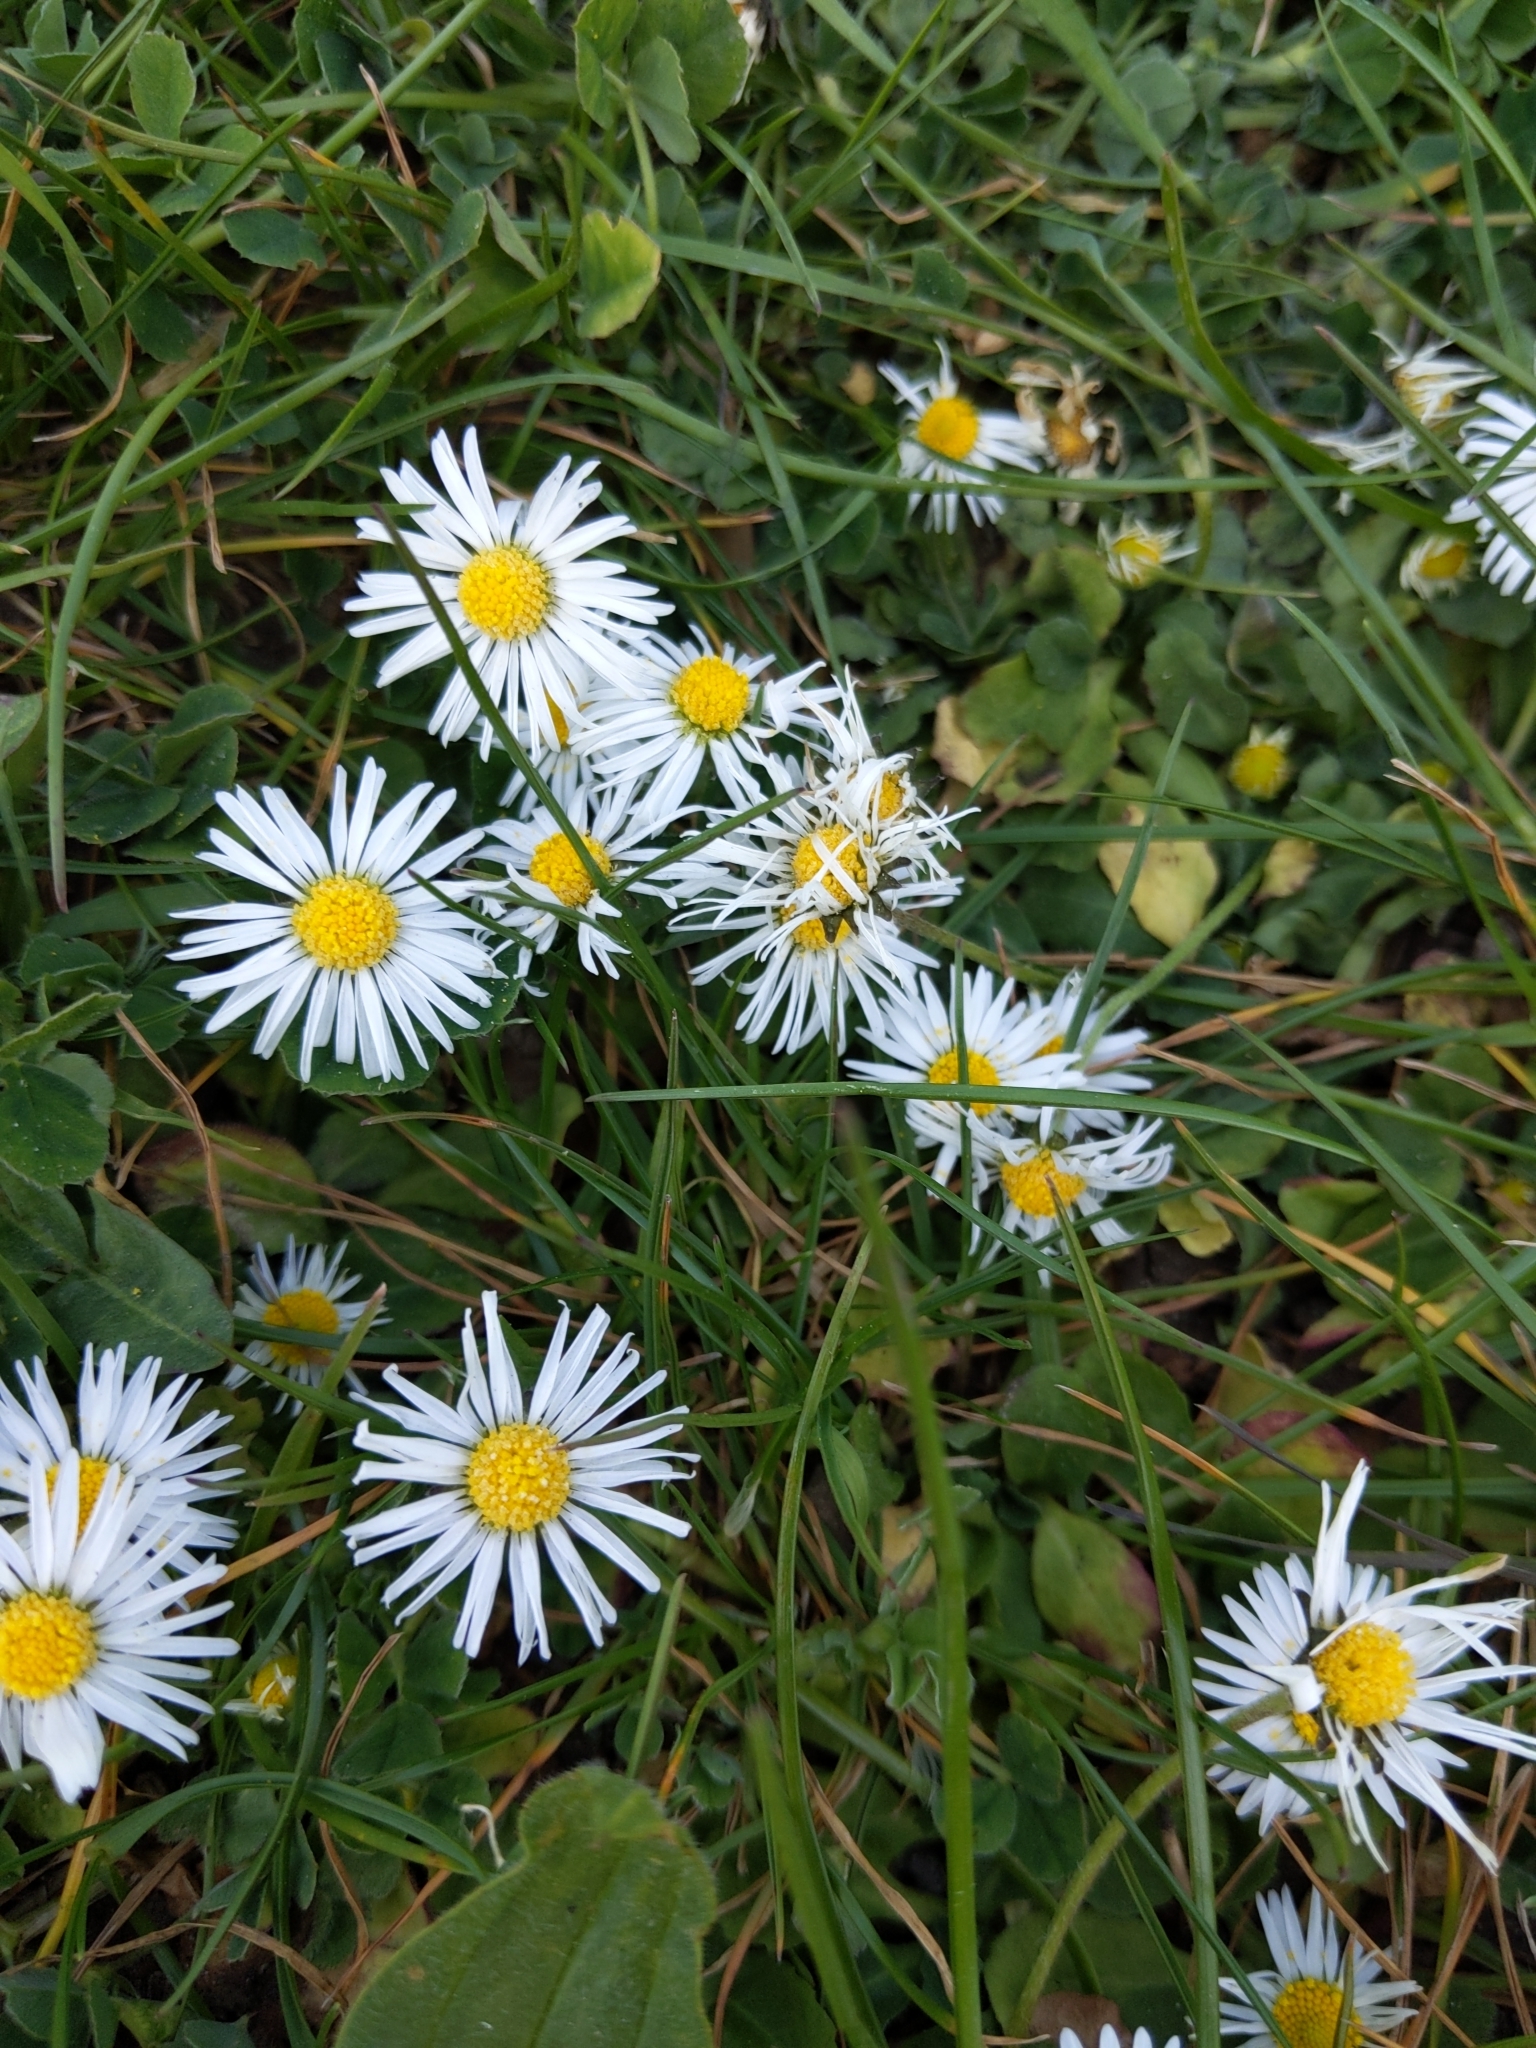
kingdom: Plantae
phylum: Tracheophyta
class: Magnoliopsida
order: Asterales
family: Asteraceae
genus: Bellis
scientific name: Bellis perennis
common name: Lawndaisy
